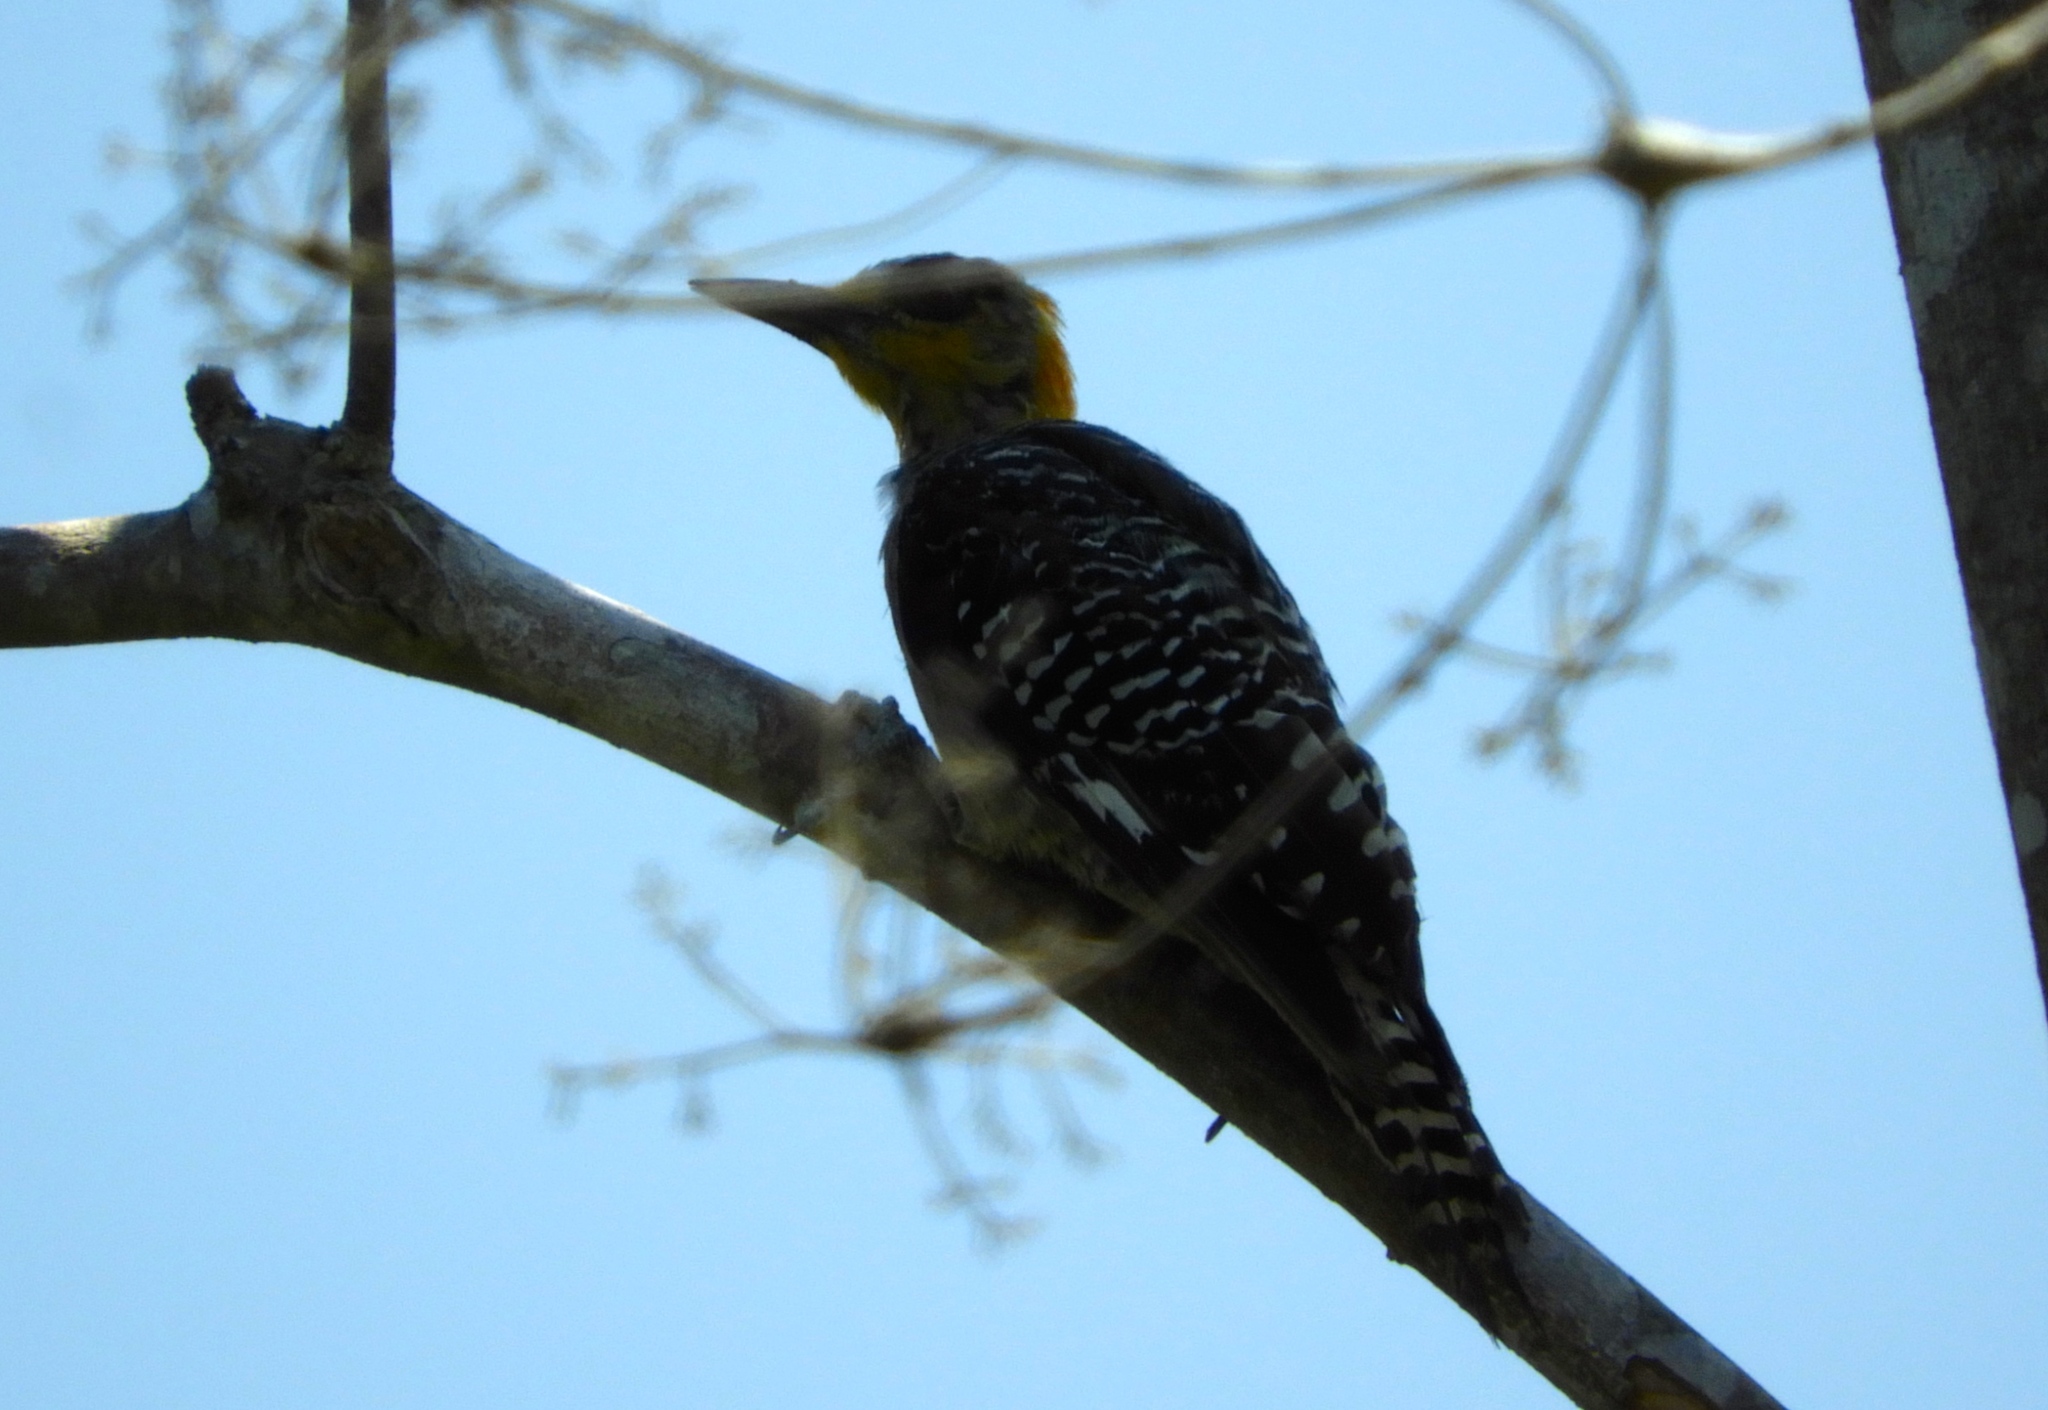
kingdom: Animalia
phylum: Chordata
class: Aves
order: Piciformes
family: Picidae
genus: Melanerpes
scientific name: Melanerpes chrysogenys
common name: Golden-cheeked woodpecker
